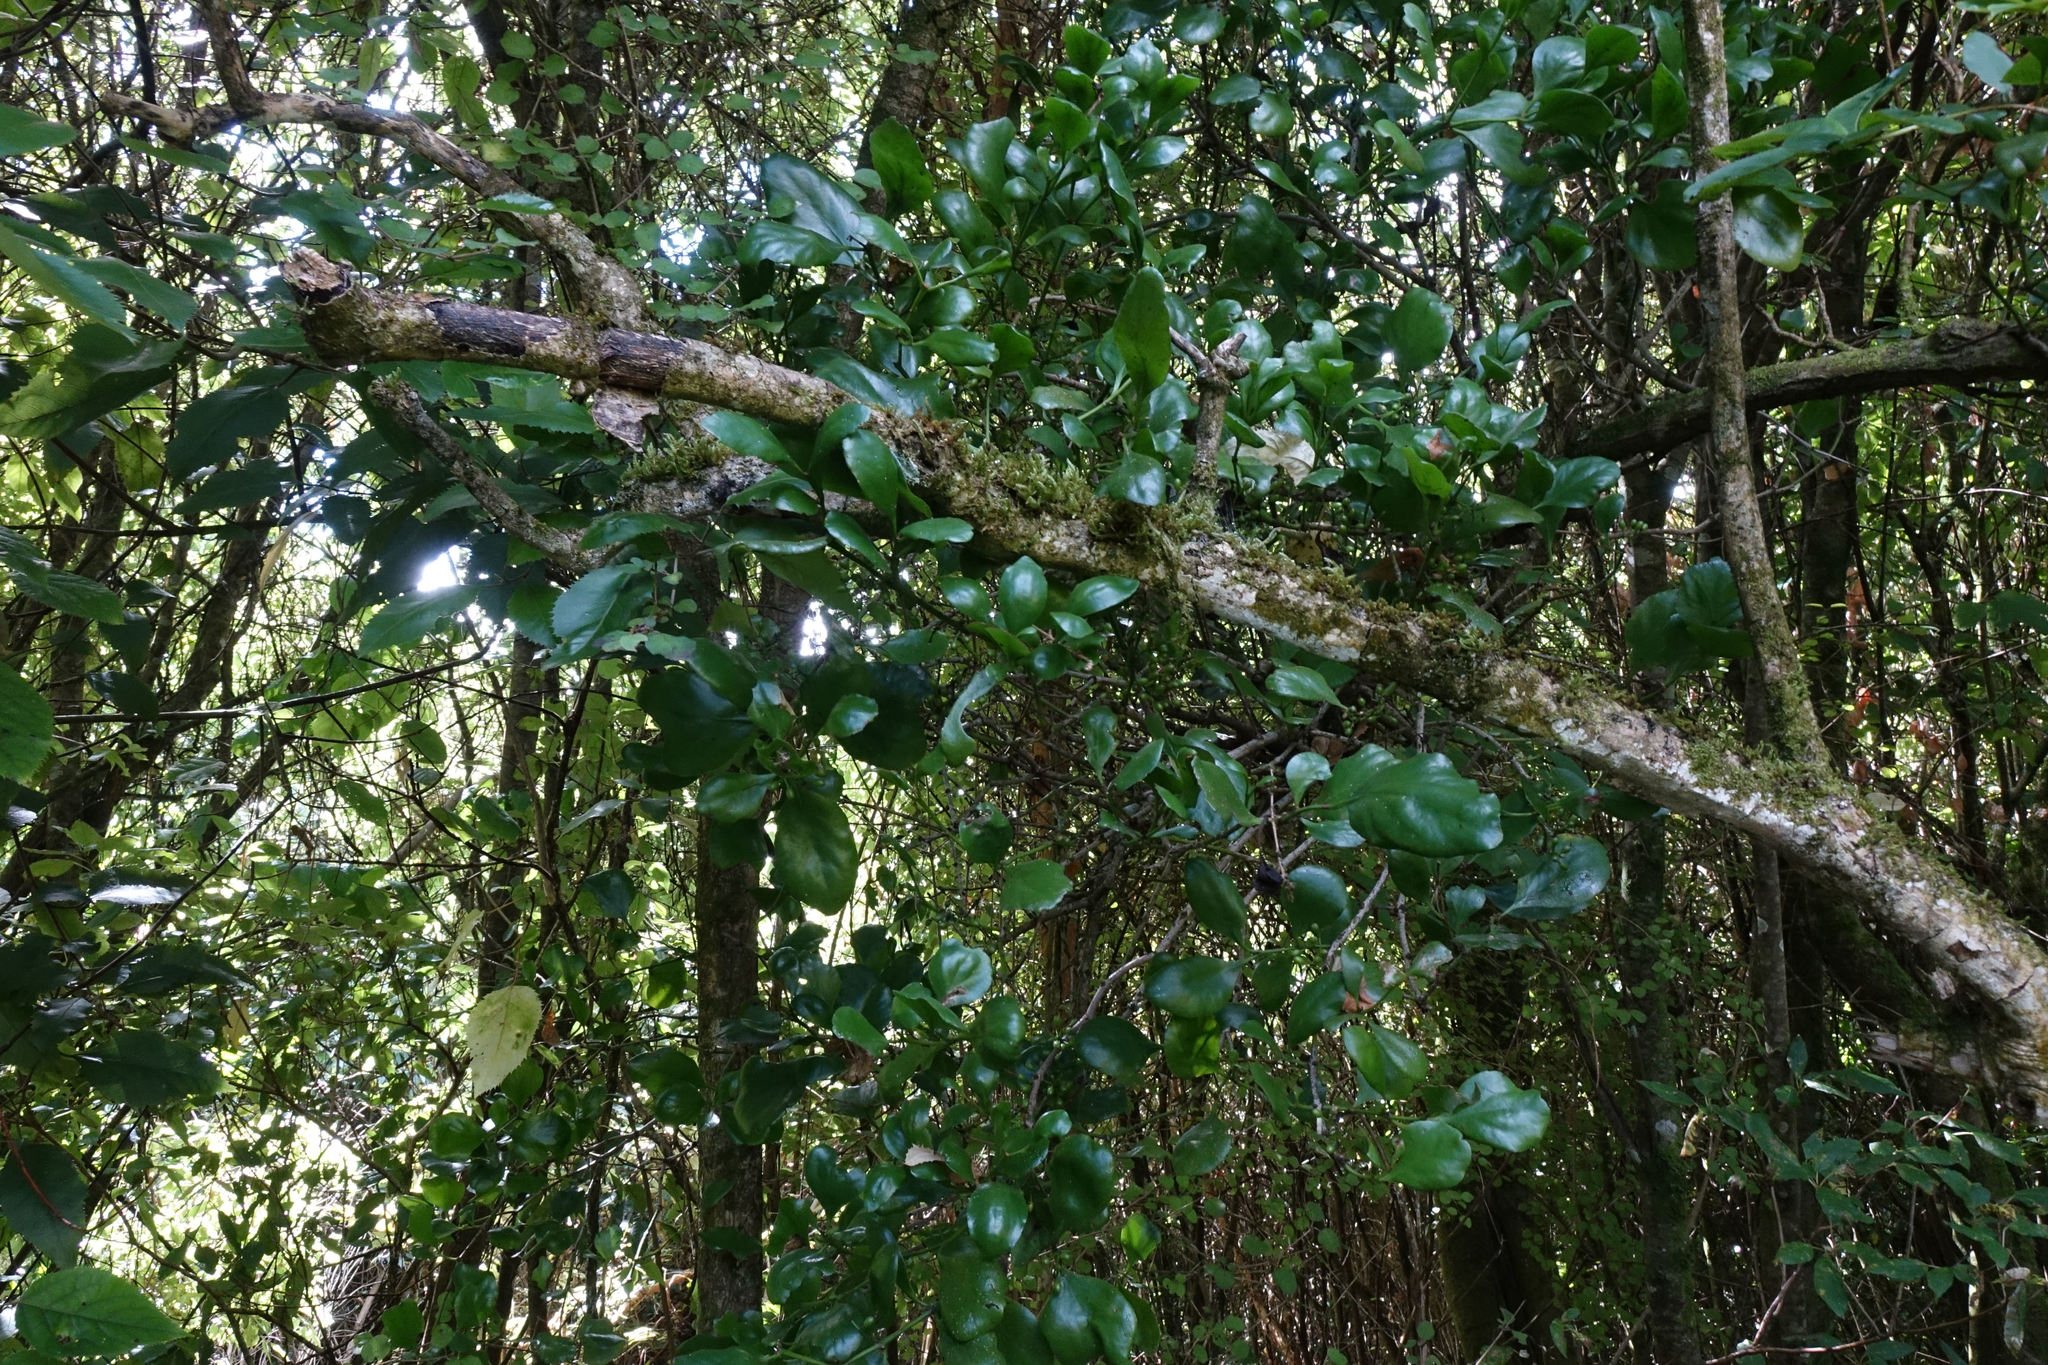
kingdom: Plantae
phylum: Tracheophyta
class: Magnoliopsida
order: Santalales
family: Loranthaceae
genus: Ileostylus
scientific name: Ileostylus micranthus
